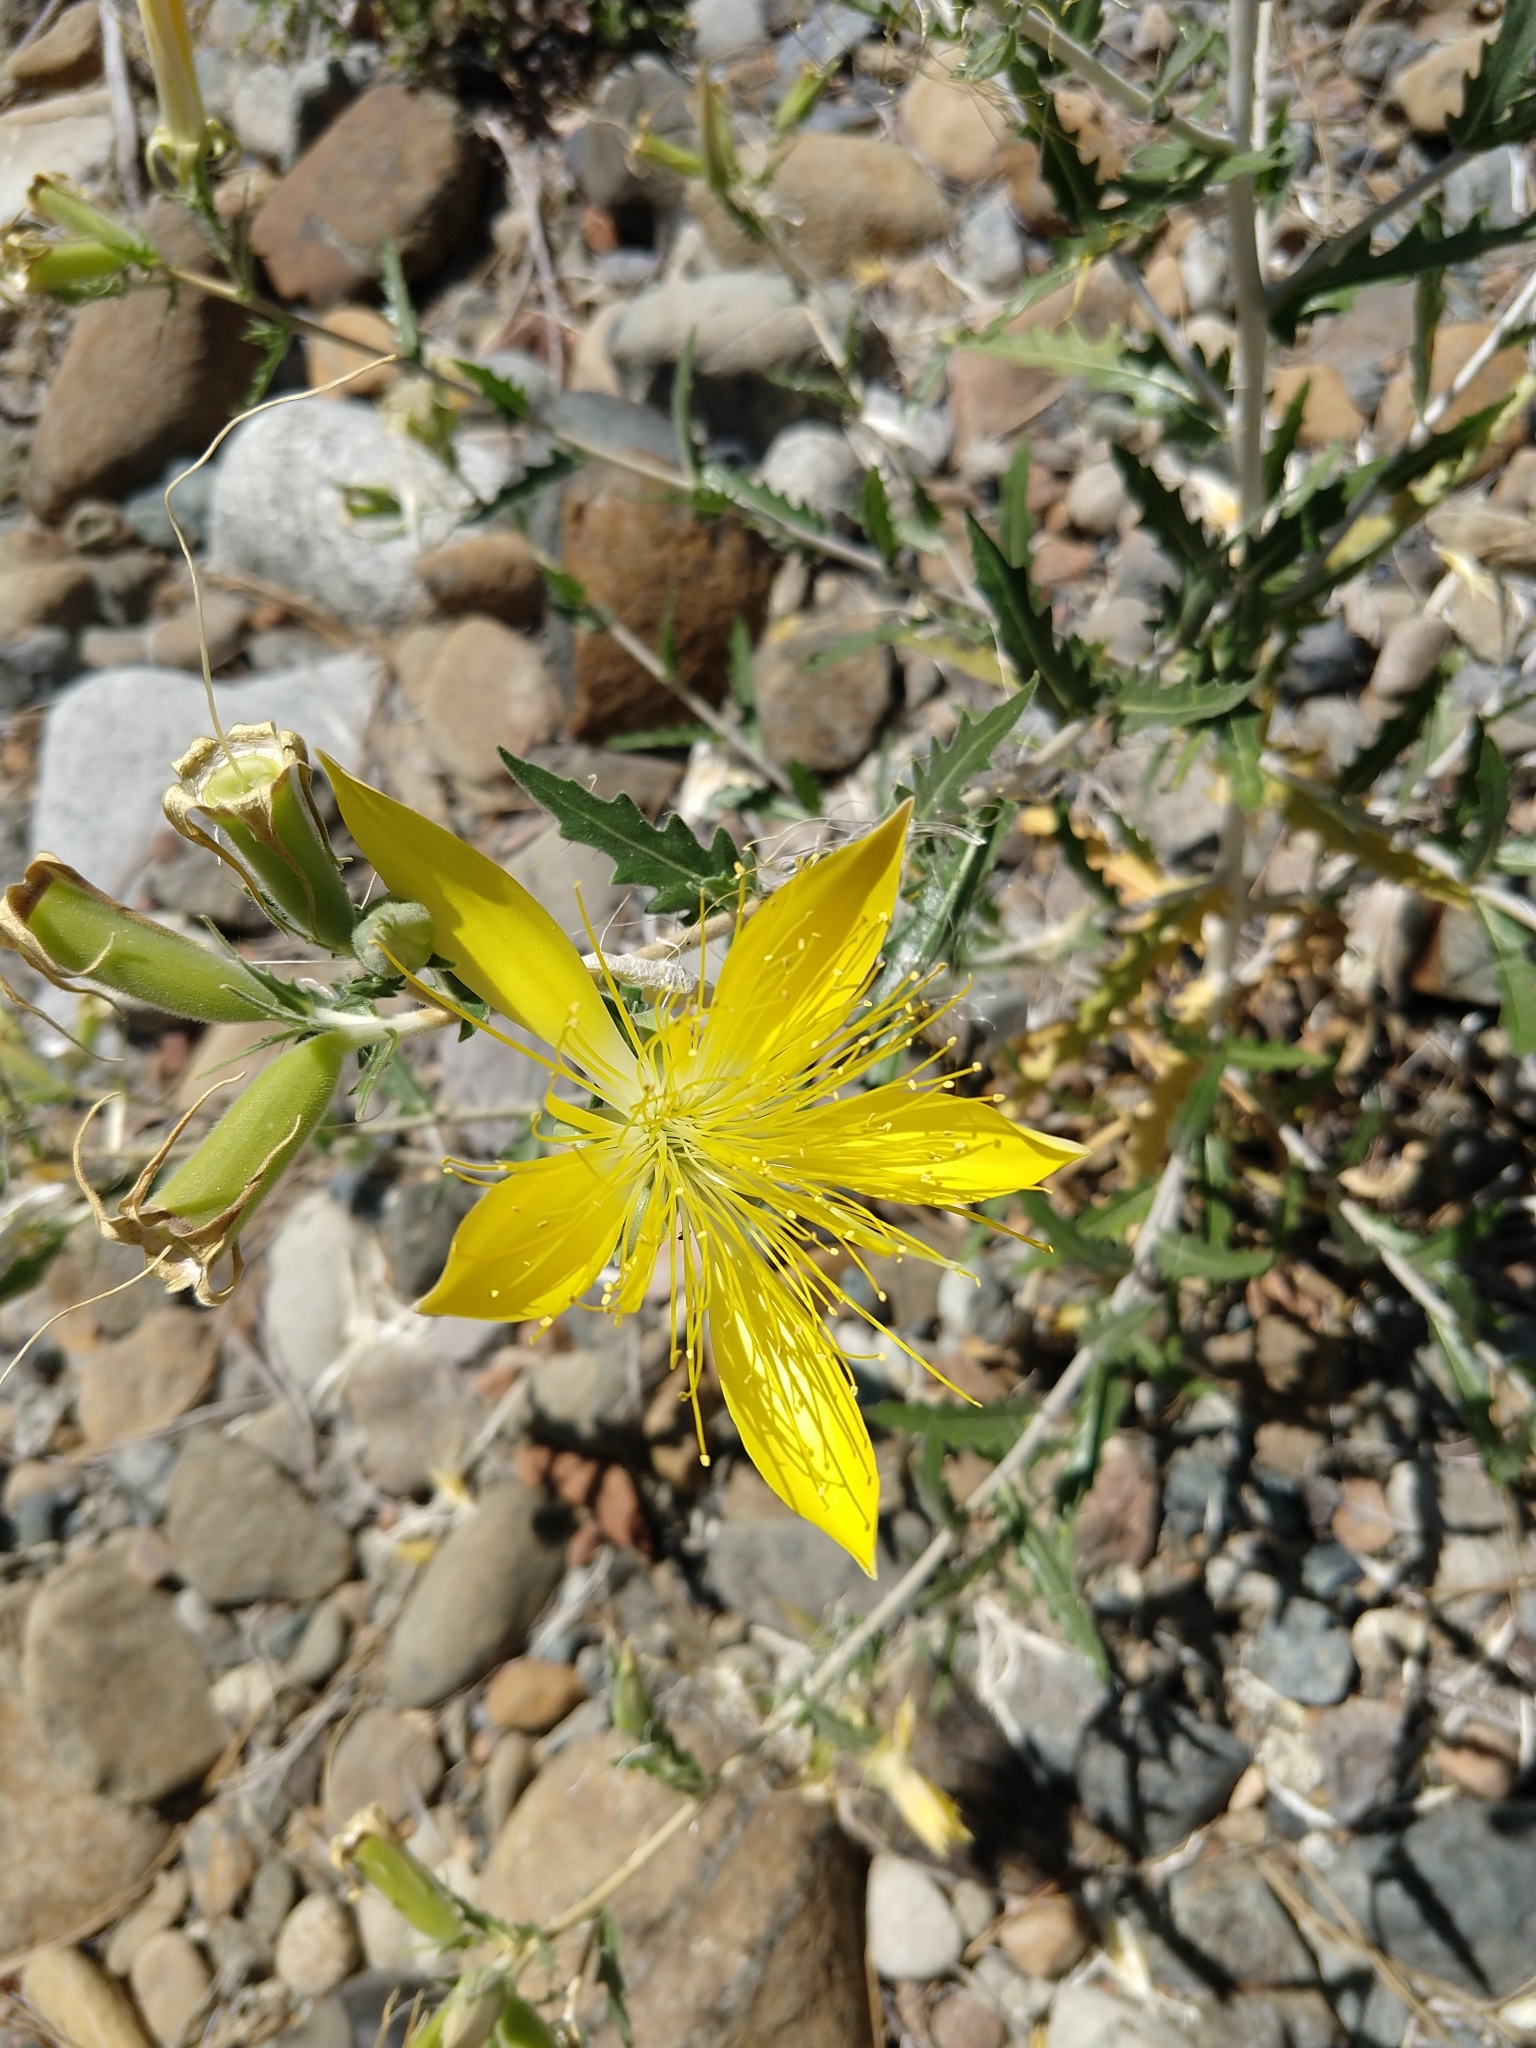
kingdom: Plantae
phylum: Tracheophyta
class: Magnoliopsida
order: Cornales
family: Loasaceae
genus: Mentzelia
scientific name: Mentzelia laevicaulis
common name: Smooth-stem blazingstar
